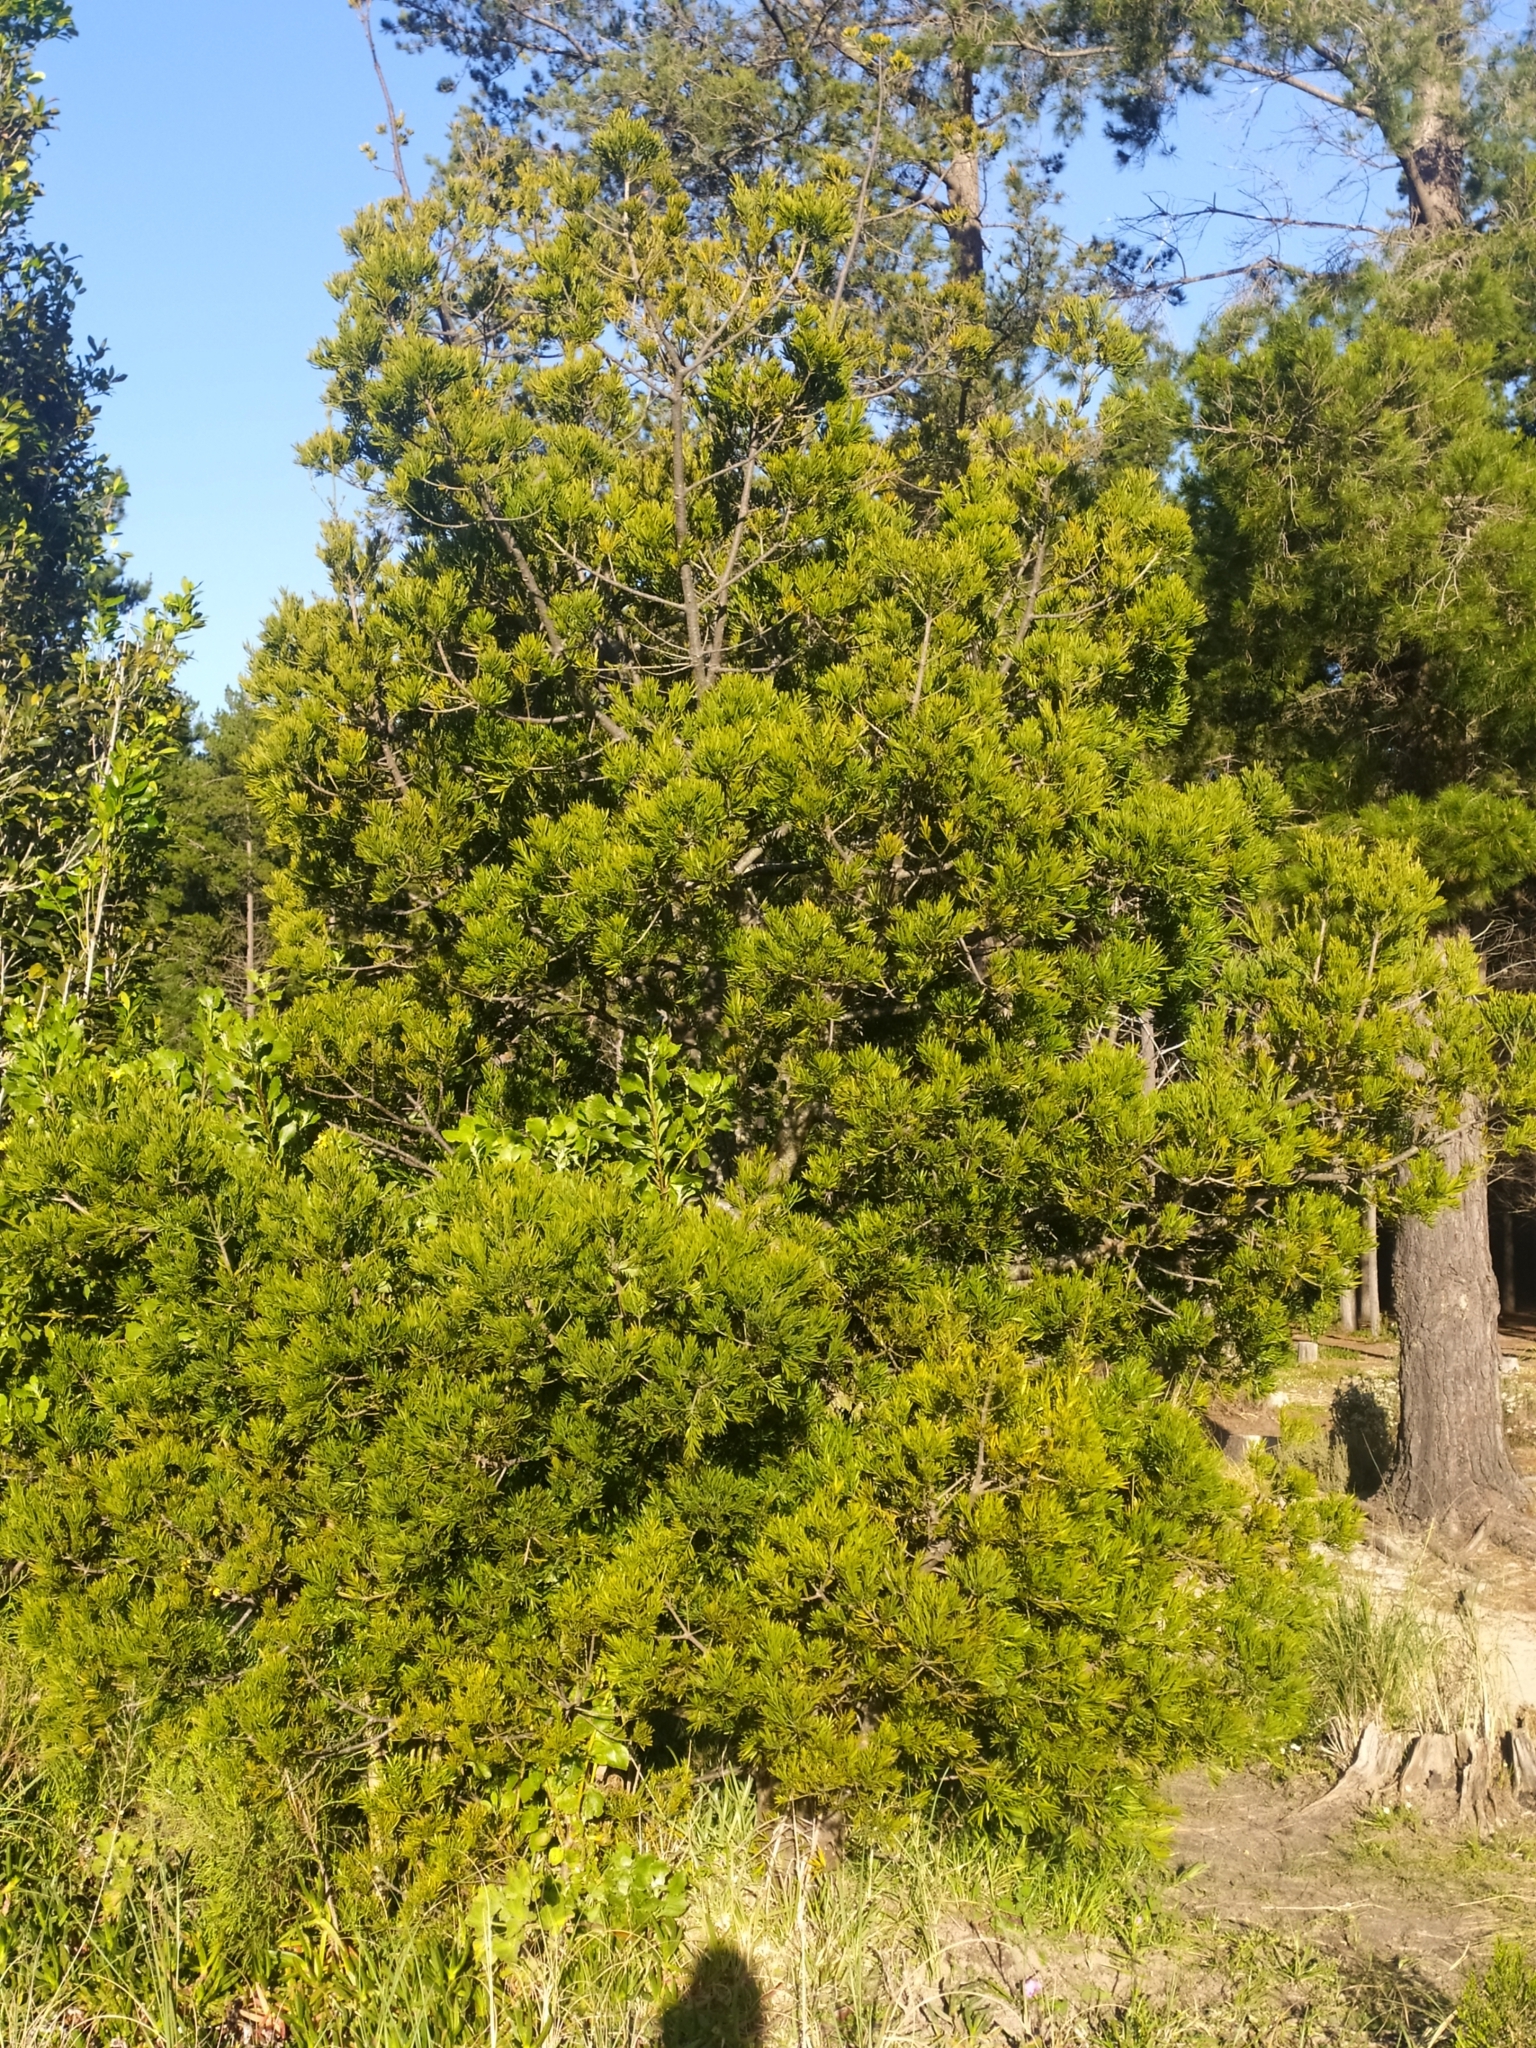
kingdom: Plantae
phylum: Tracheophyta
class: Pinopsida
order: Pinales
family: Podocarpaceae
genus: Afrocarpus
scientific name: Afrocarpus falcatus
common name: Bastard yellowwood
